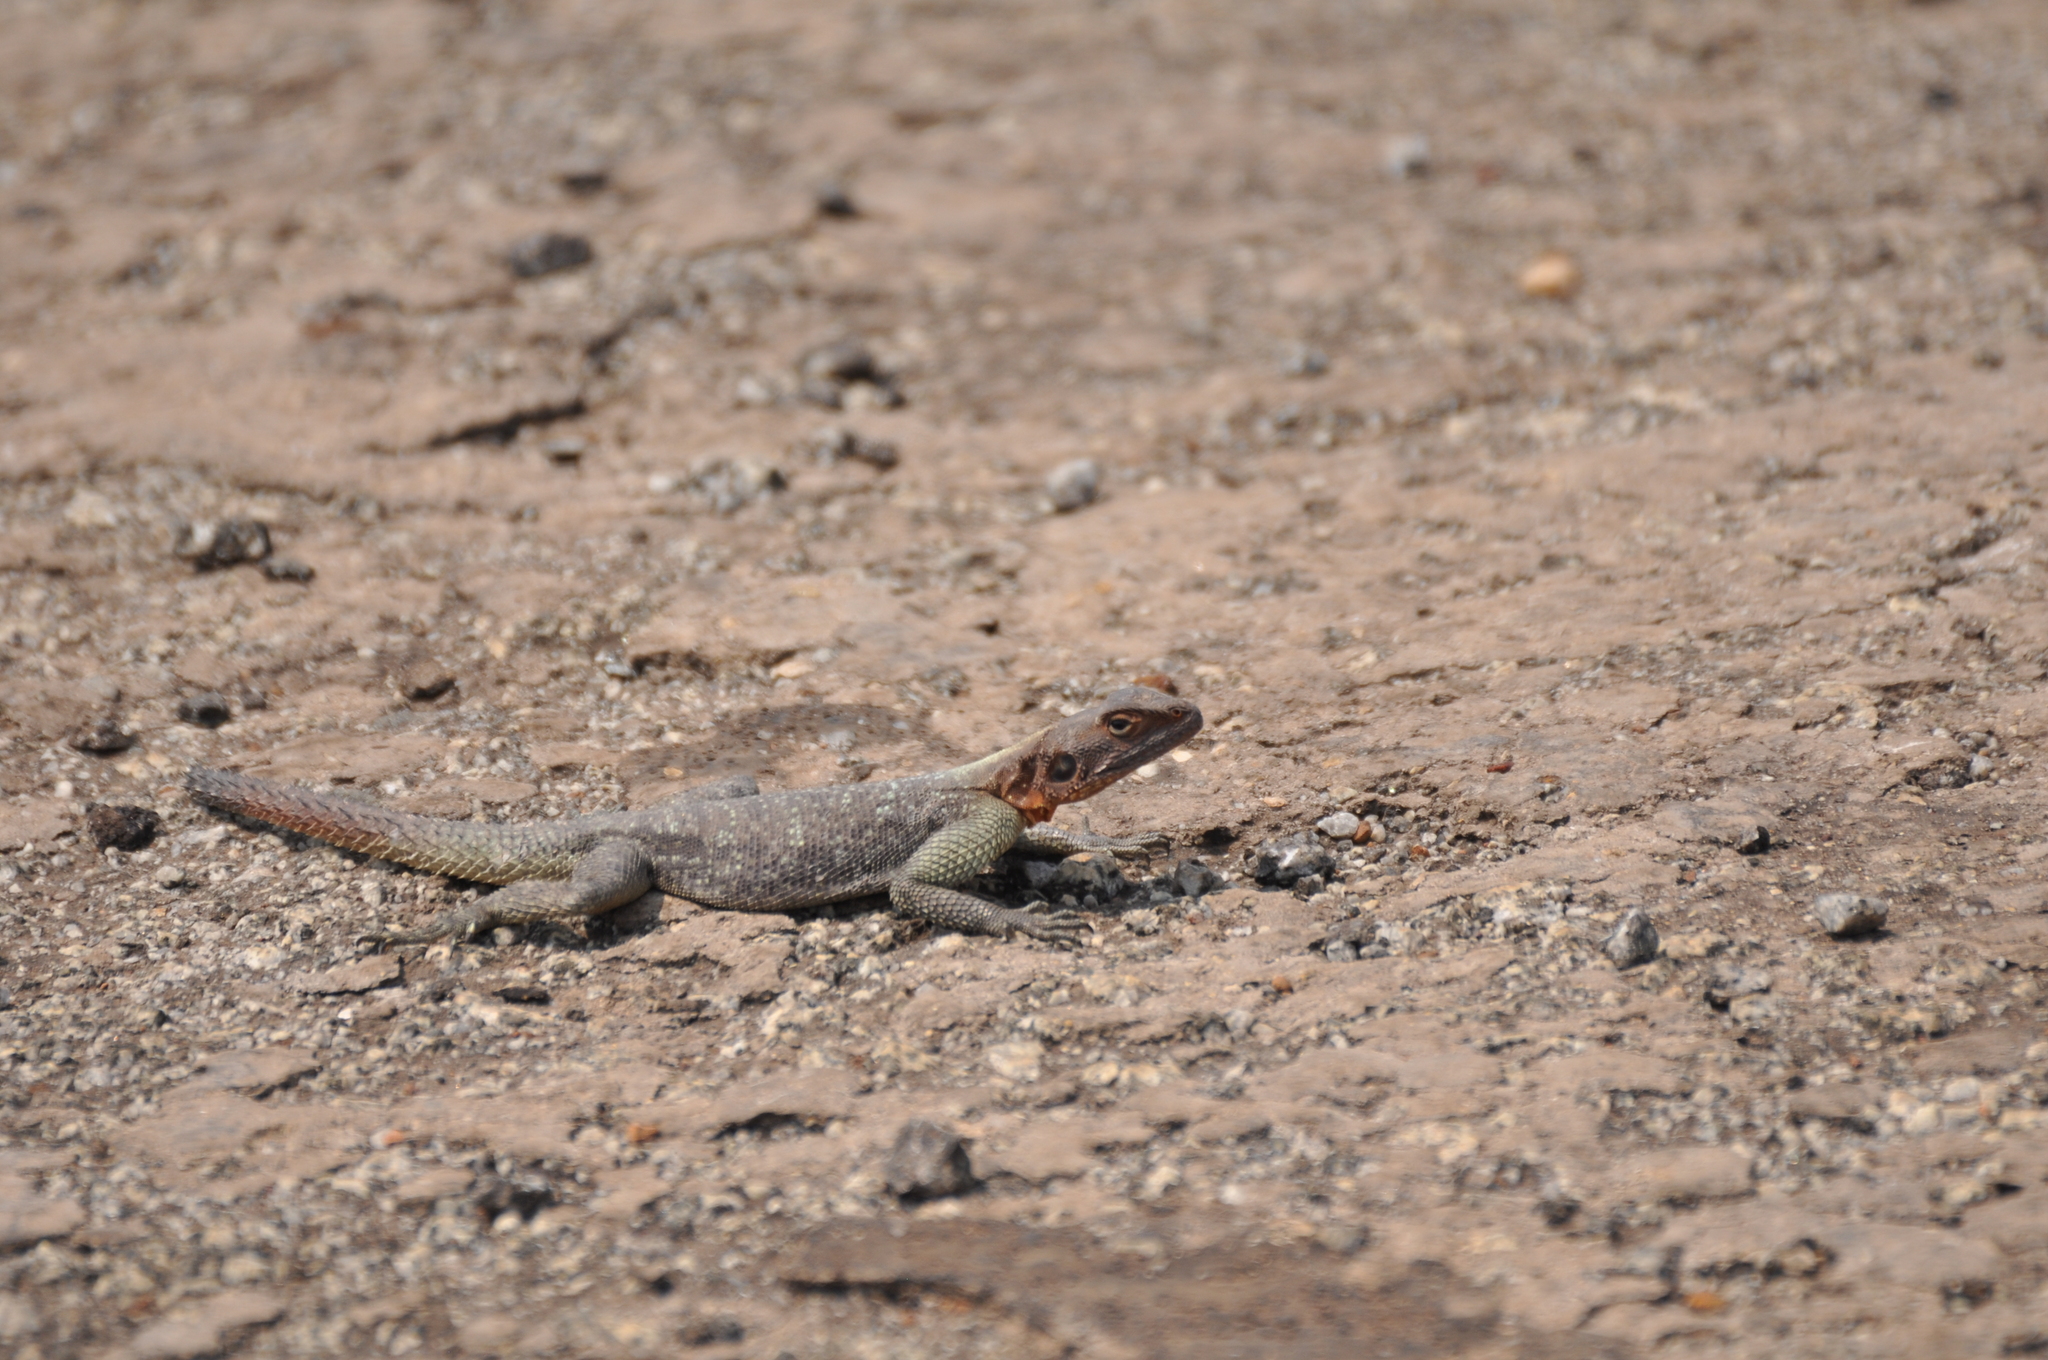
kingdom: Animalia
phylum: Chordata
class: Squamata
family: Agamidae
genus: Agama
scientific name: Agama planiceps
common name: Namib rock agama
